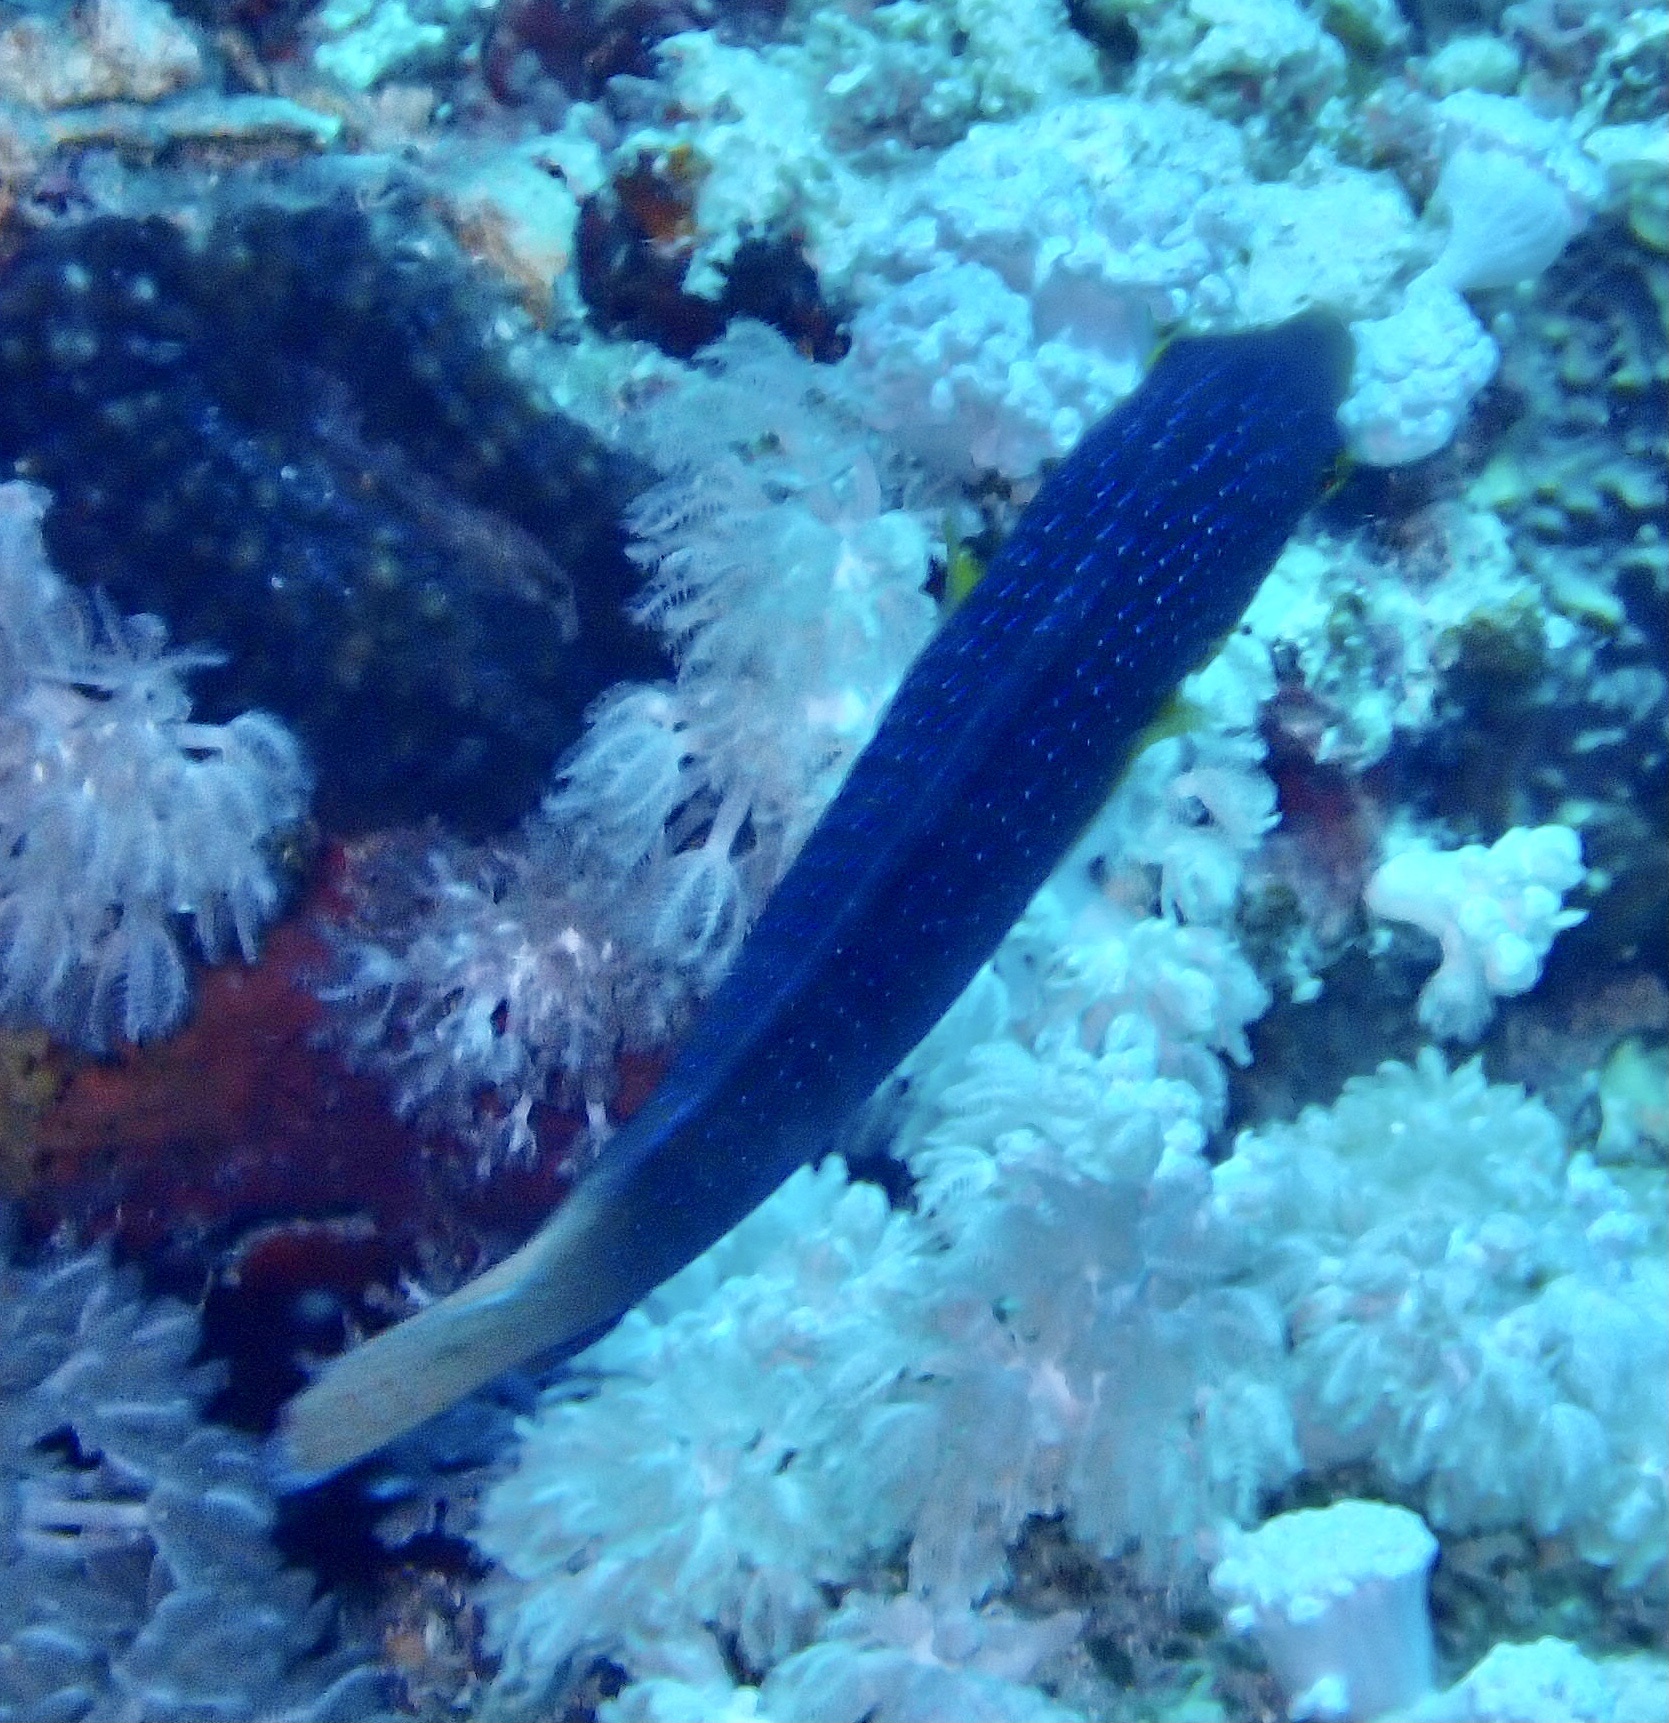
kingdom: Animalia
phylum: Chordata
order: Perciformes
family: Labridae
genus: Anampses
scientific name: Anampses twistii
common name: Yellowbreasted wrasse
